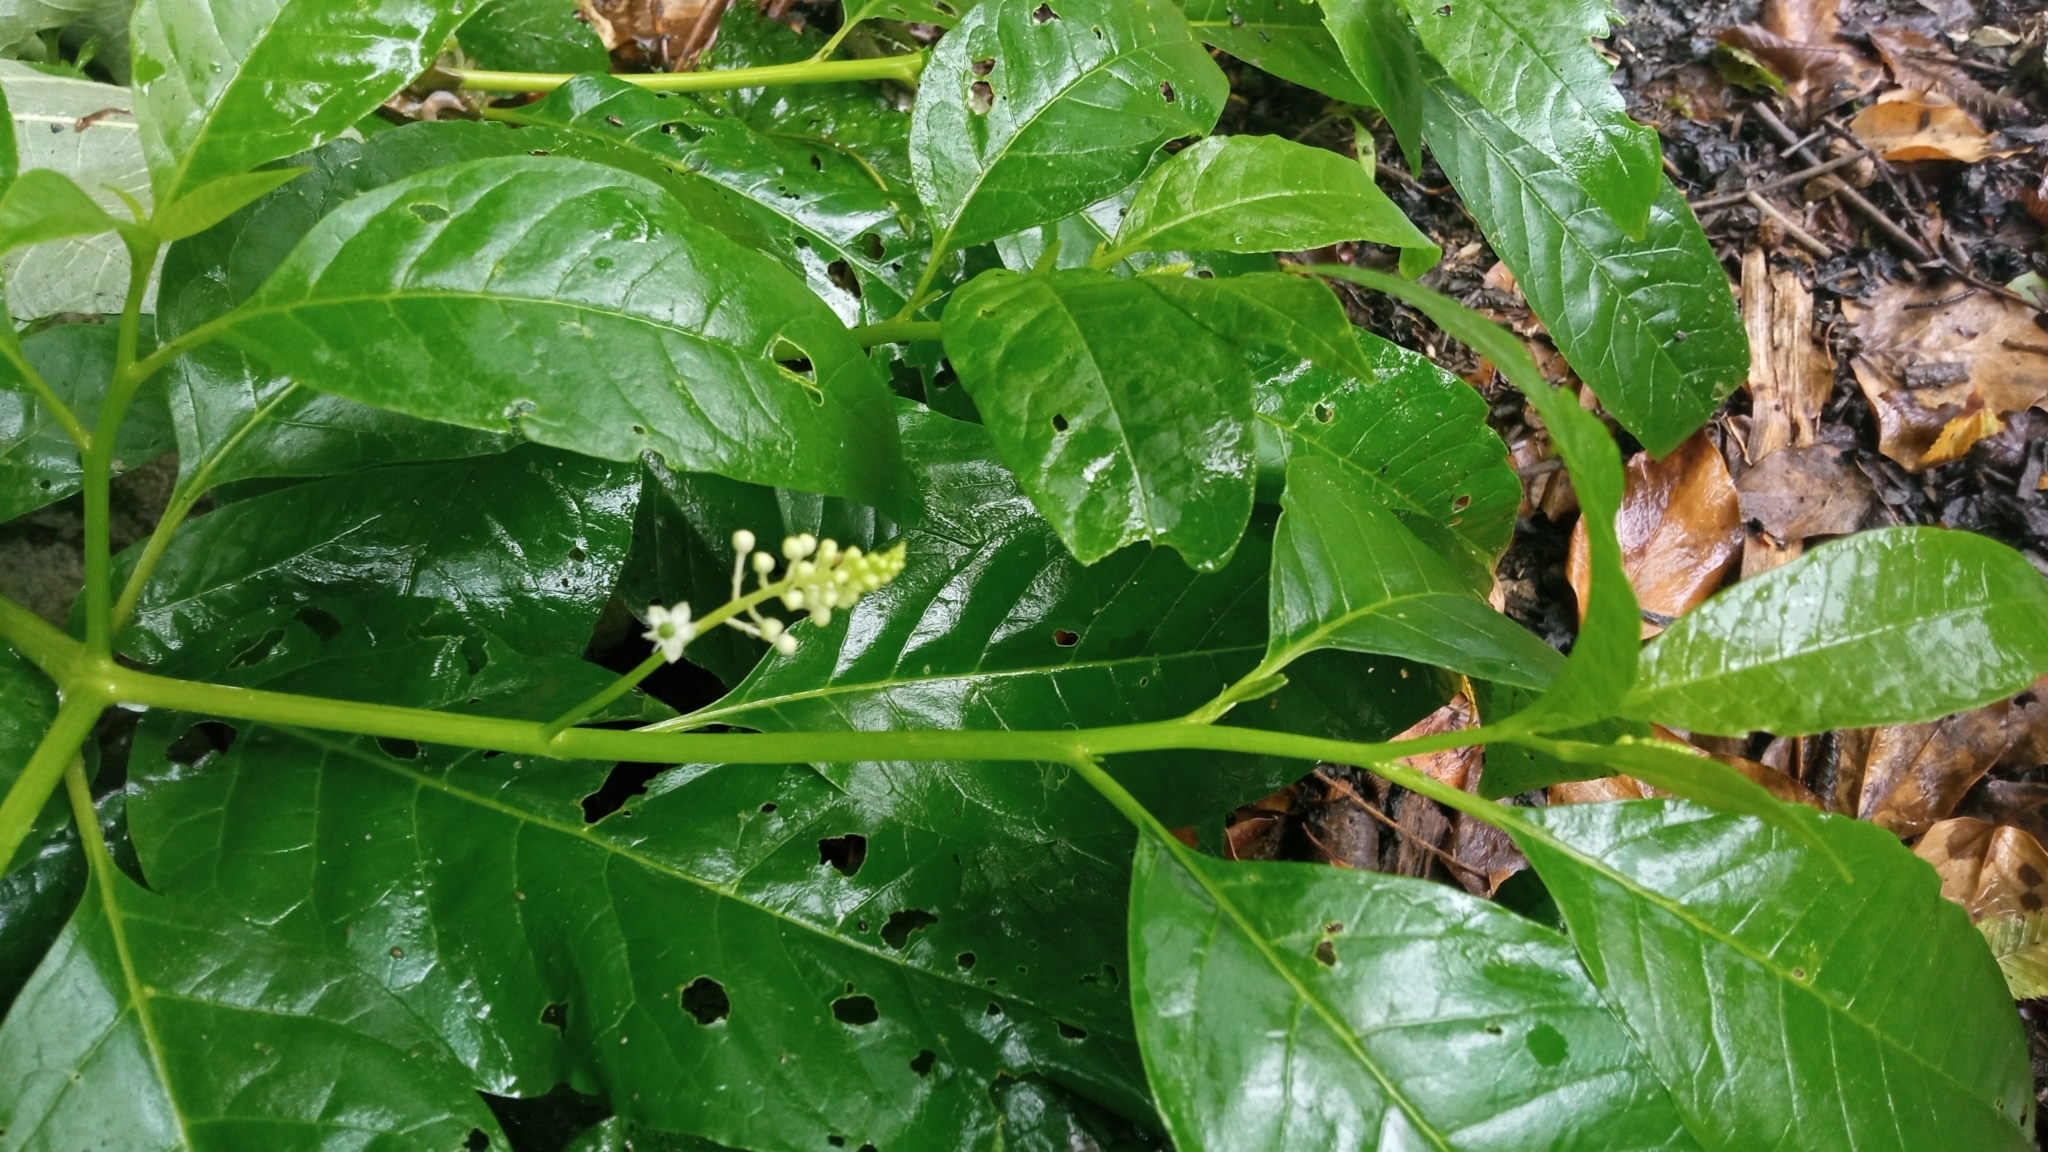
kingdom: Plantae
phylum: Tracheophyta
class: Magnoliopsida
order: Caryophyllales
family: Phytolaccaceae
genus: Phytolacca
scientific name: Phytolacca americana
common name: American pokeweed
